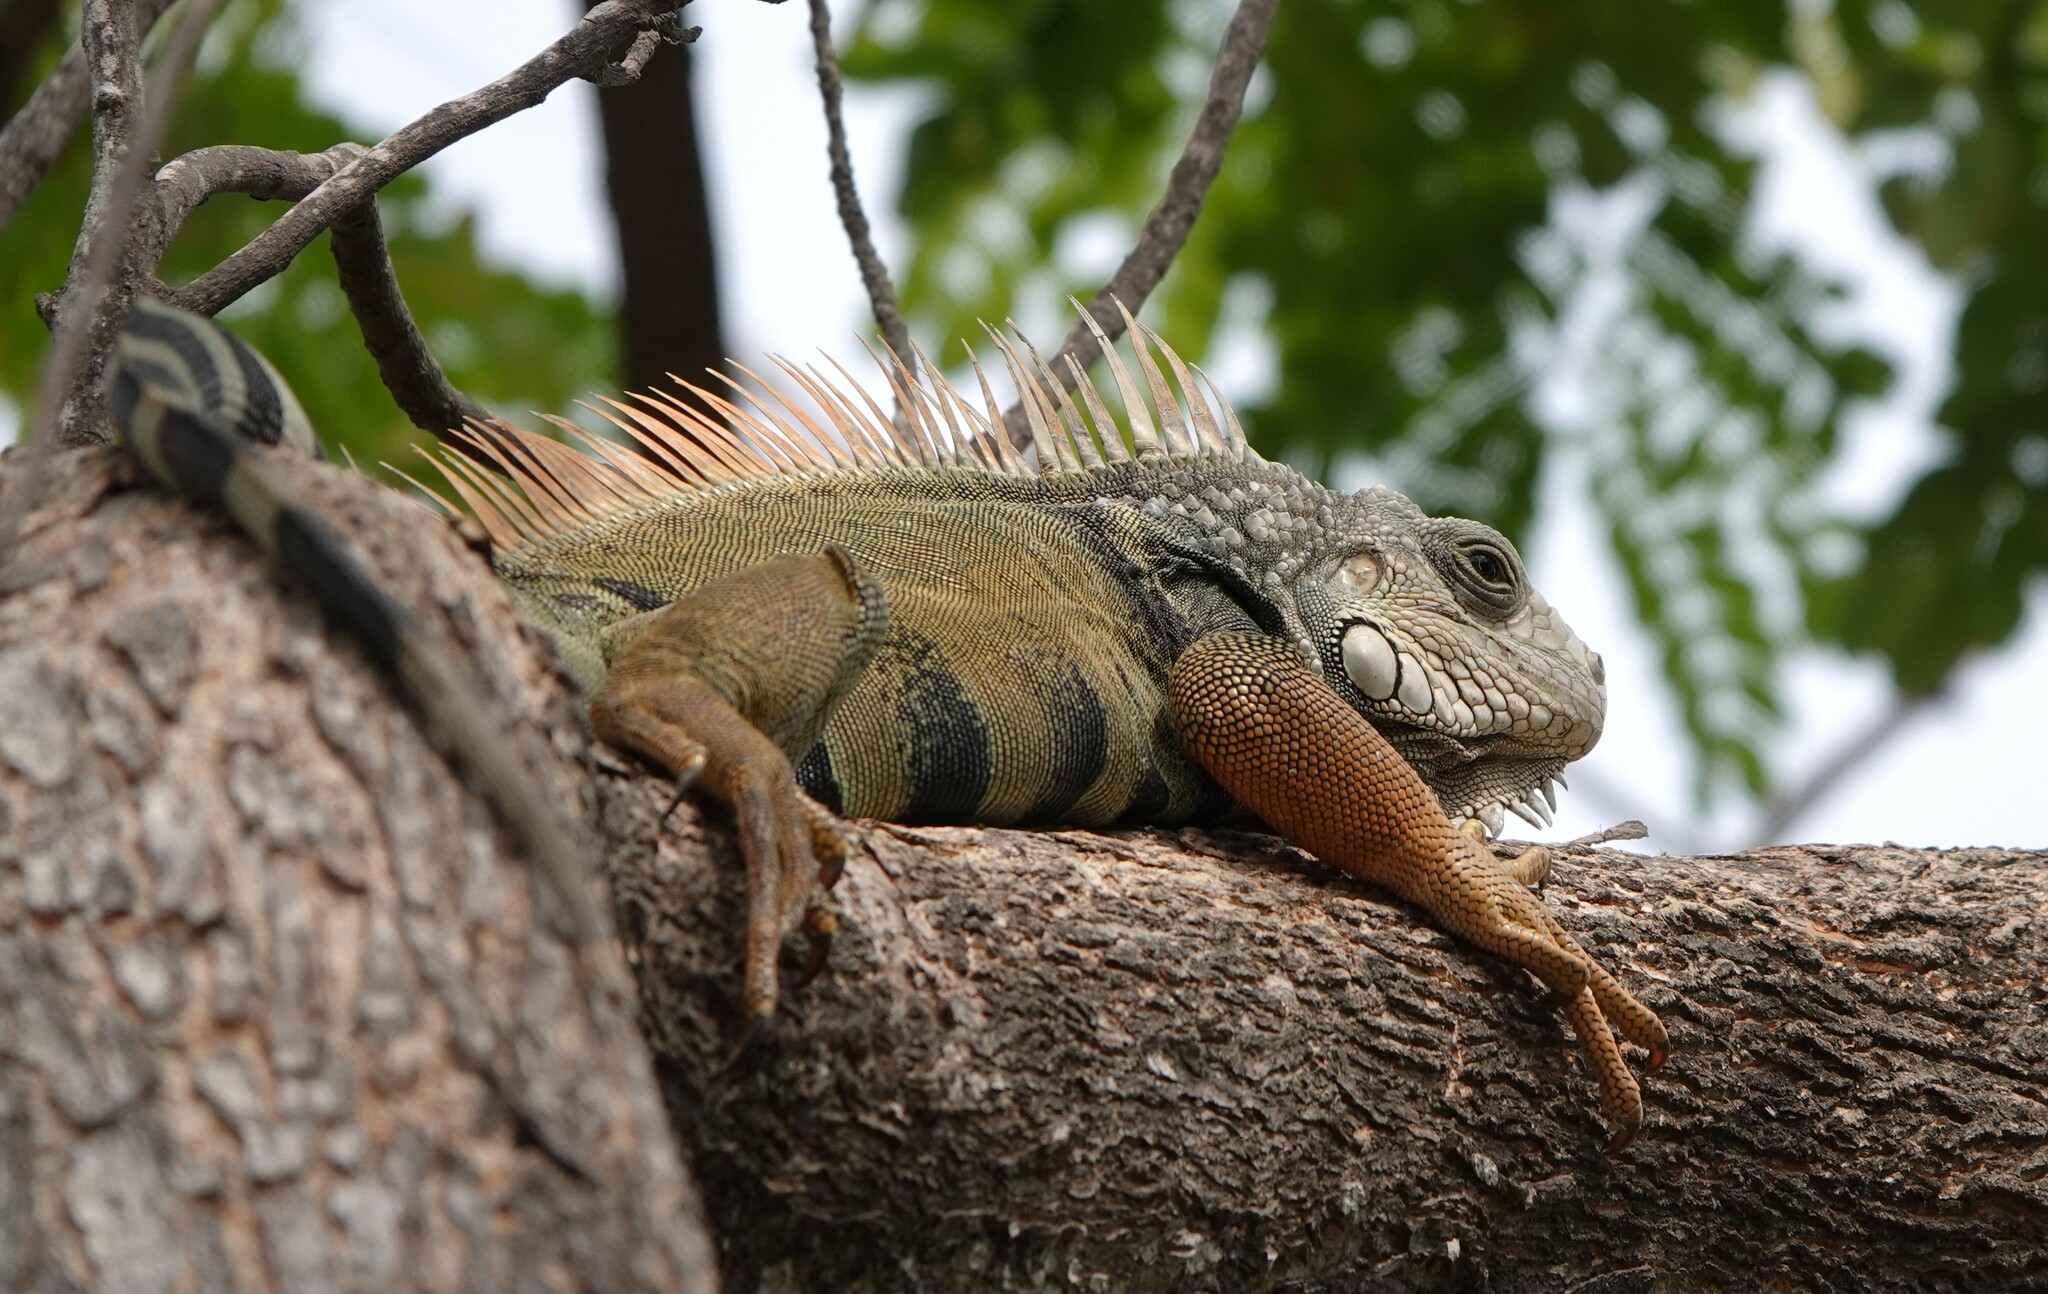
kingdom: Animalia
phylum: Chordata
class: Squamata
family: Iguanidae
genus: Iguana
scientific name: Iguana iguana
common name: Green iguana
